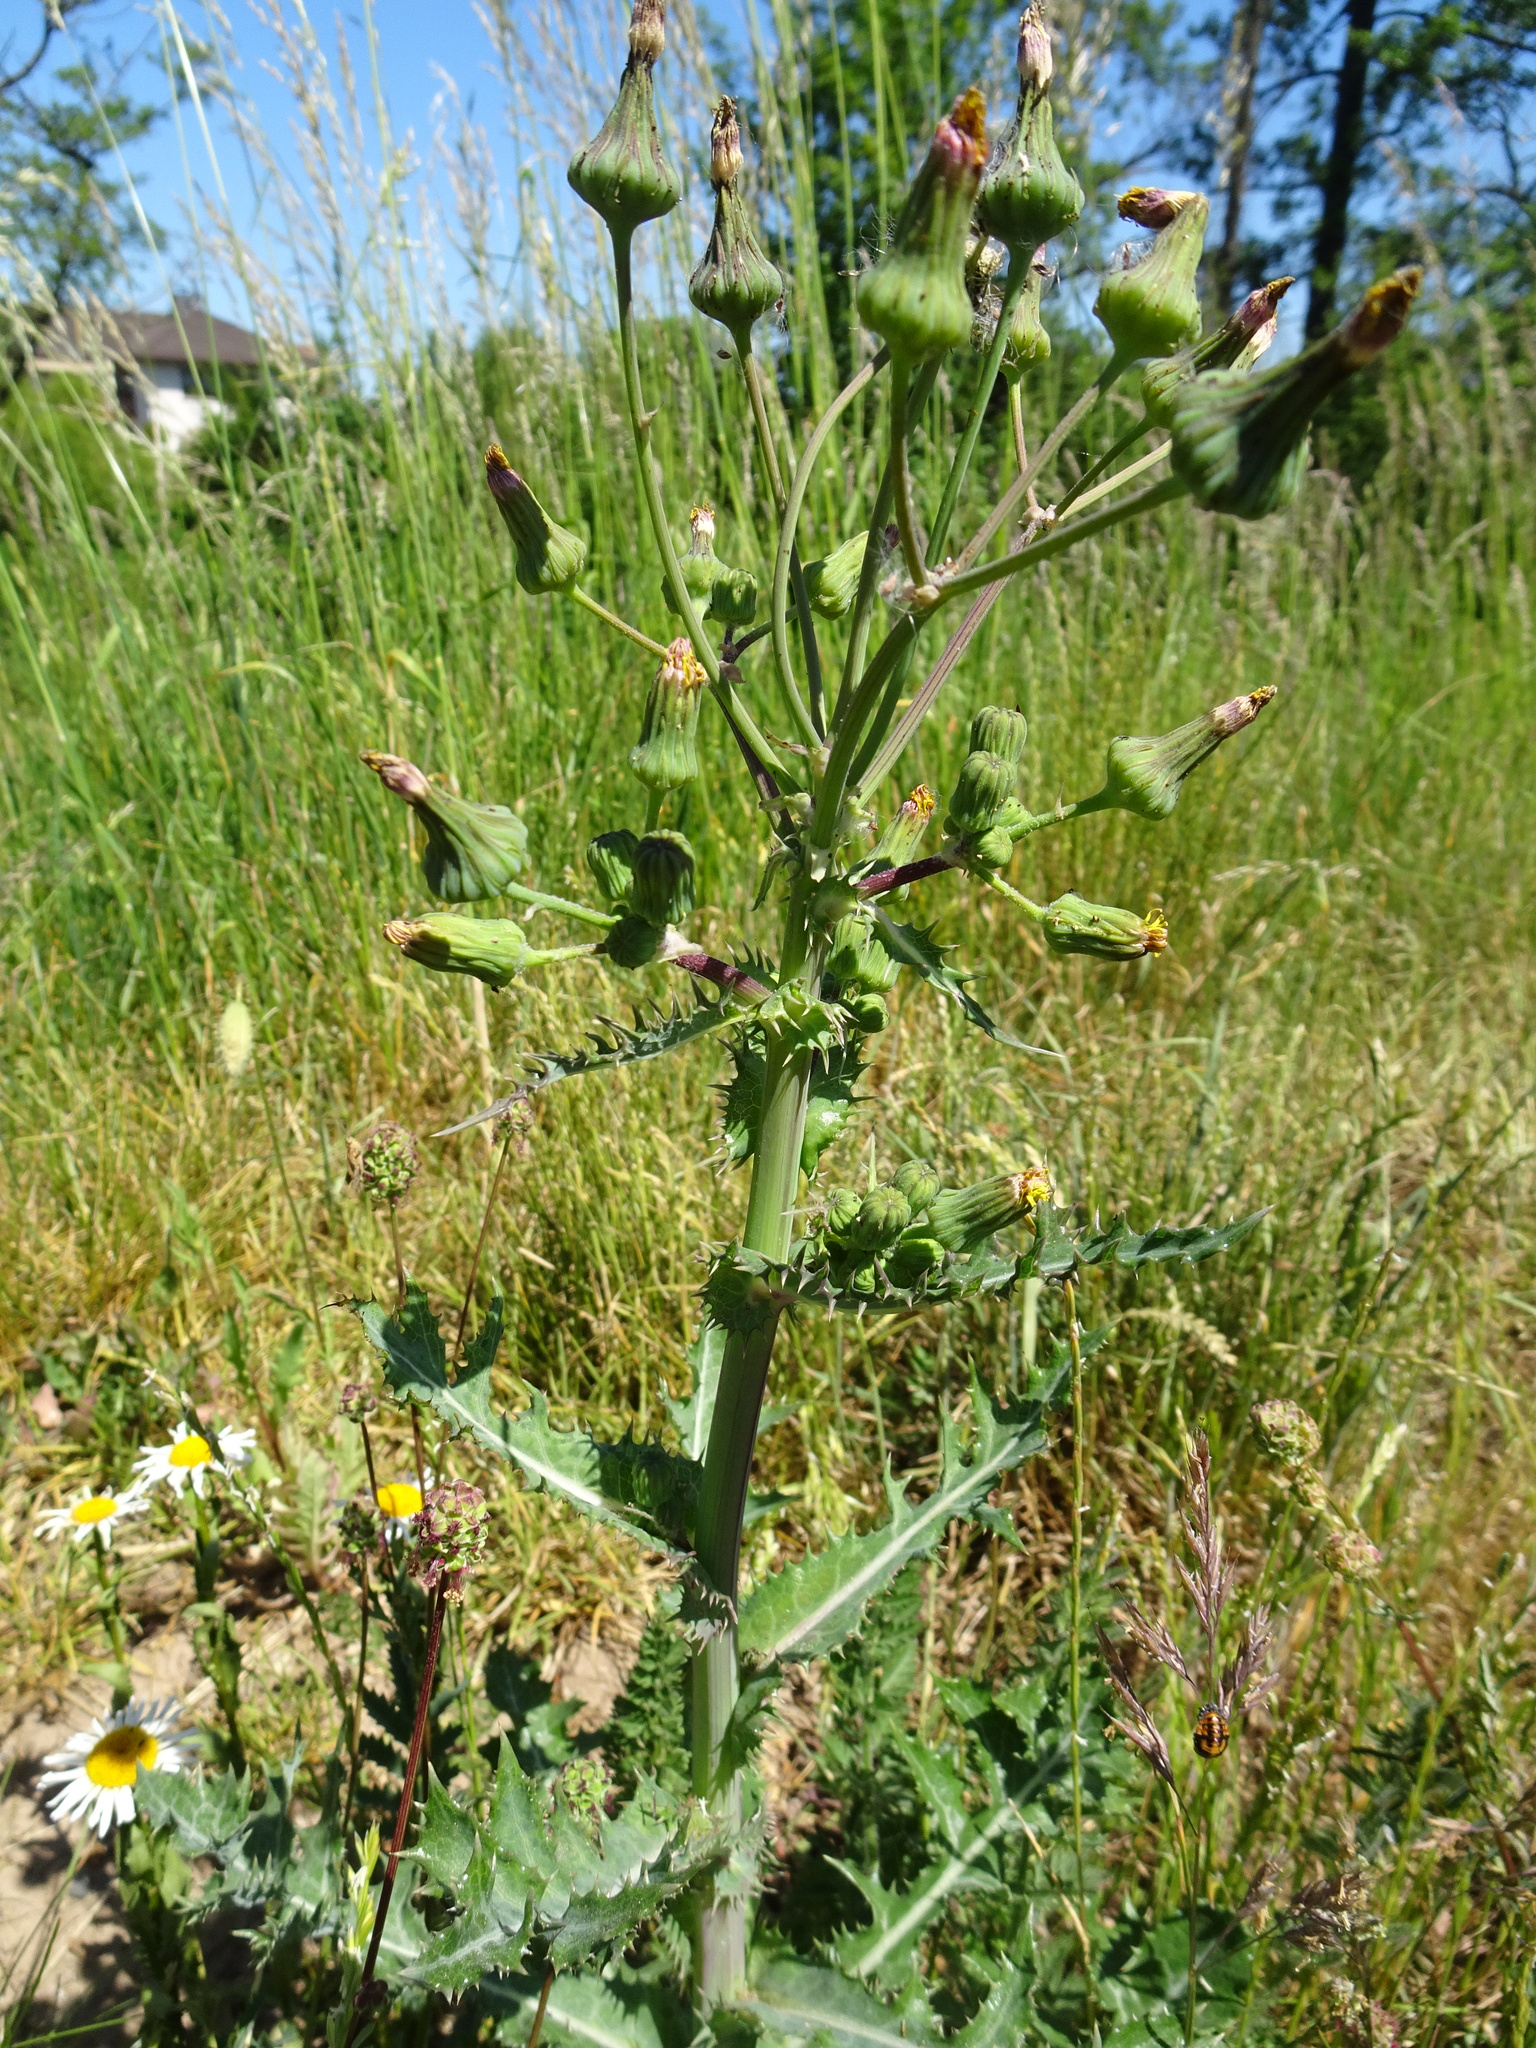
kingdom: Plantae
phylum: Tracheophyta
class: Magnoliopsida
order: Asterales
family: Asteraceae
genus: Sonchus
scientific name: Sonchus asper
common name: Prickly sow-thistle
